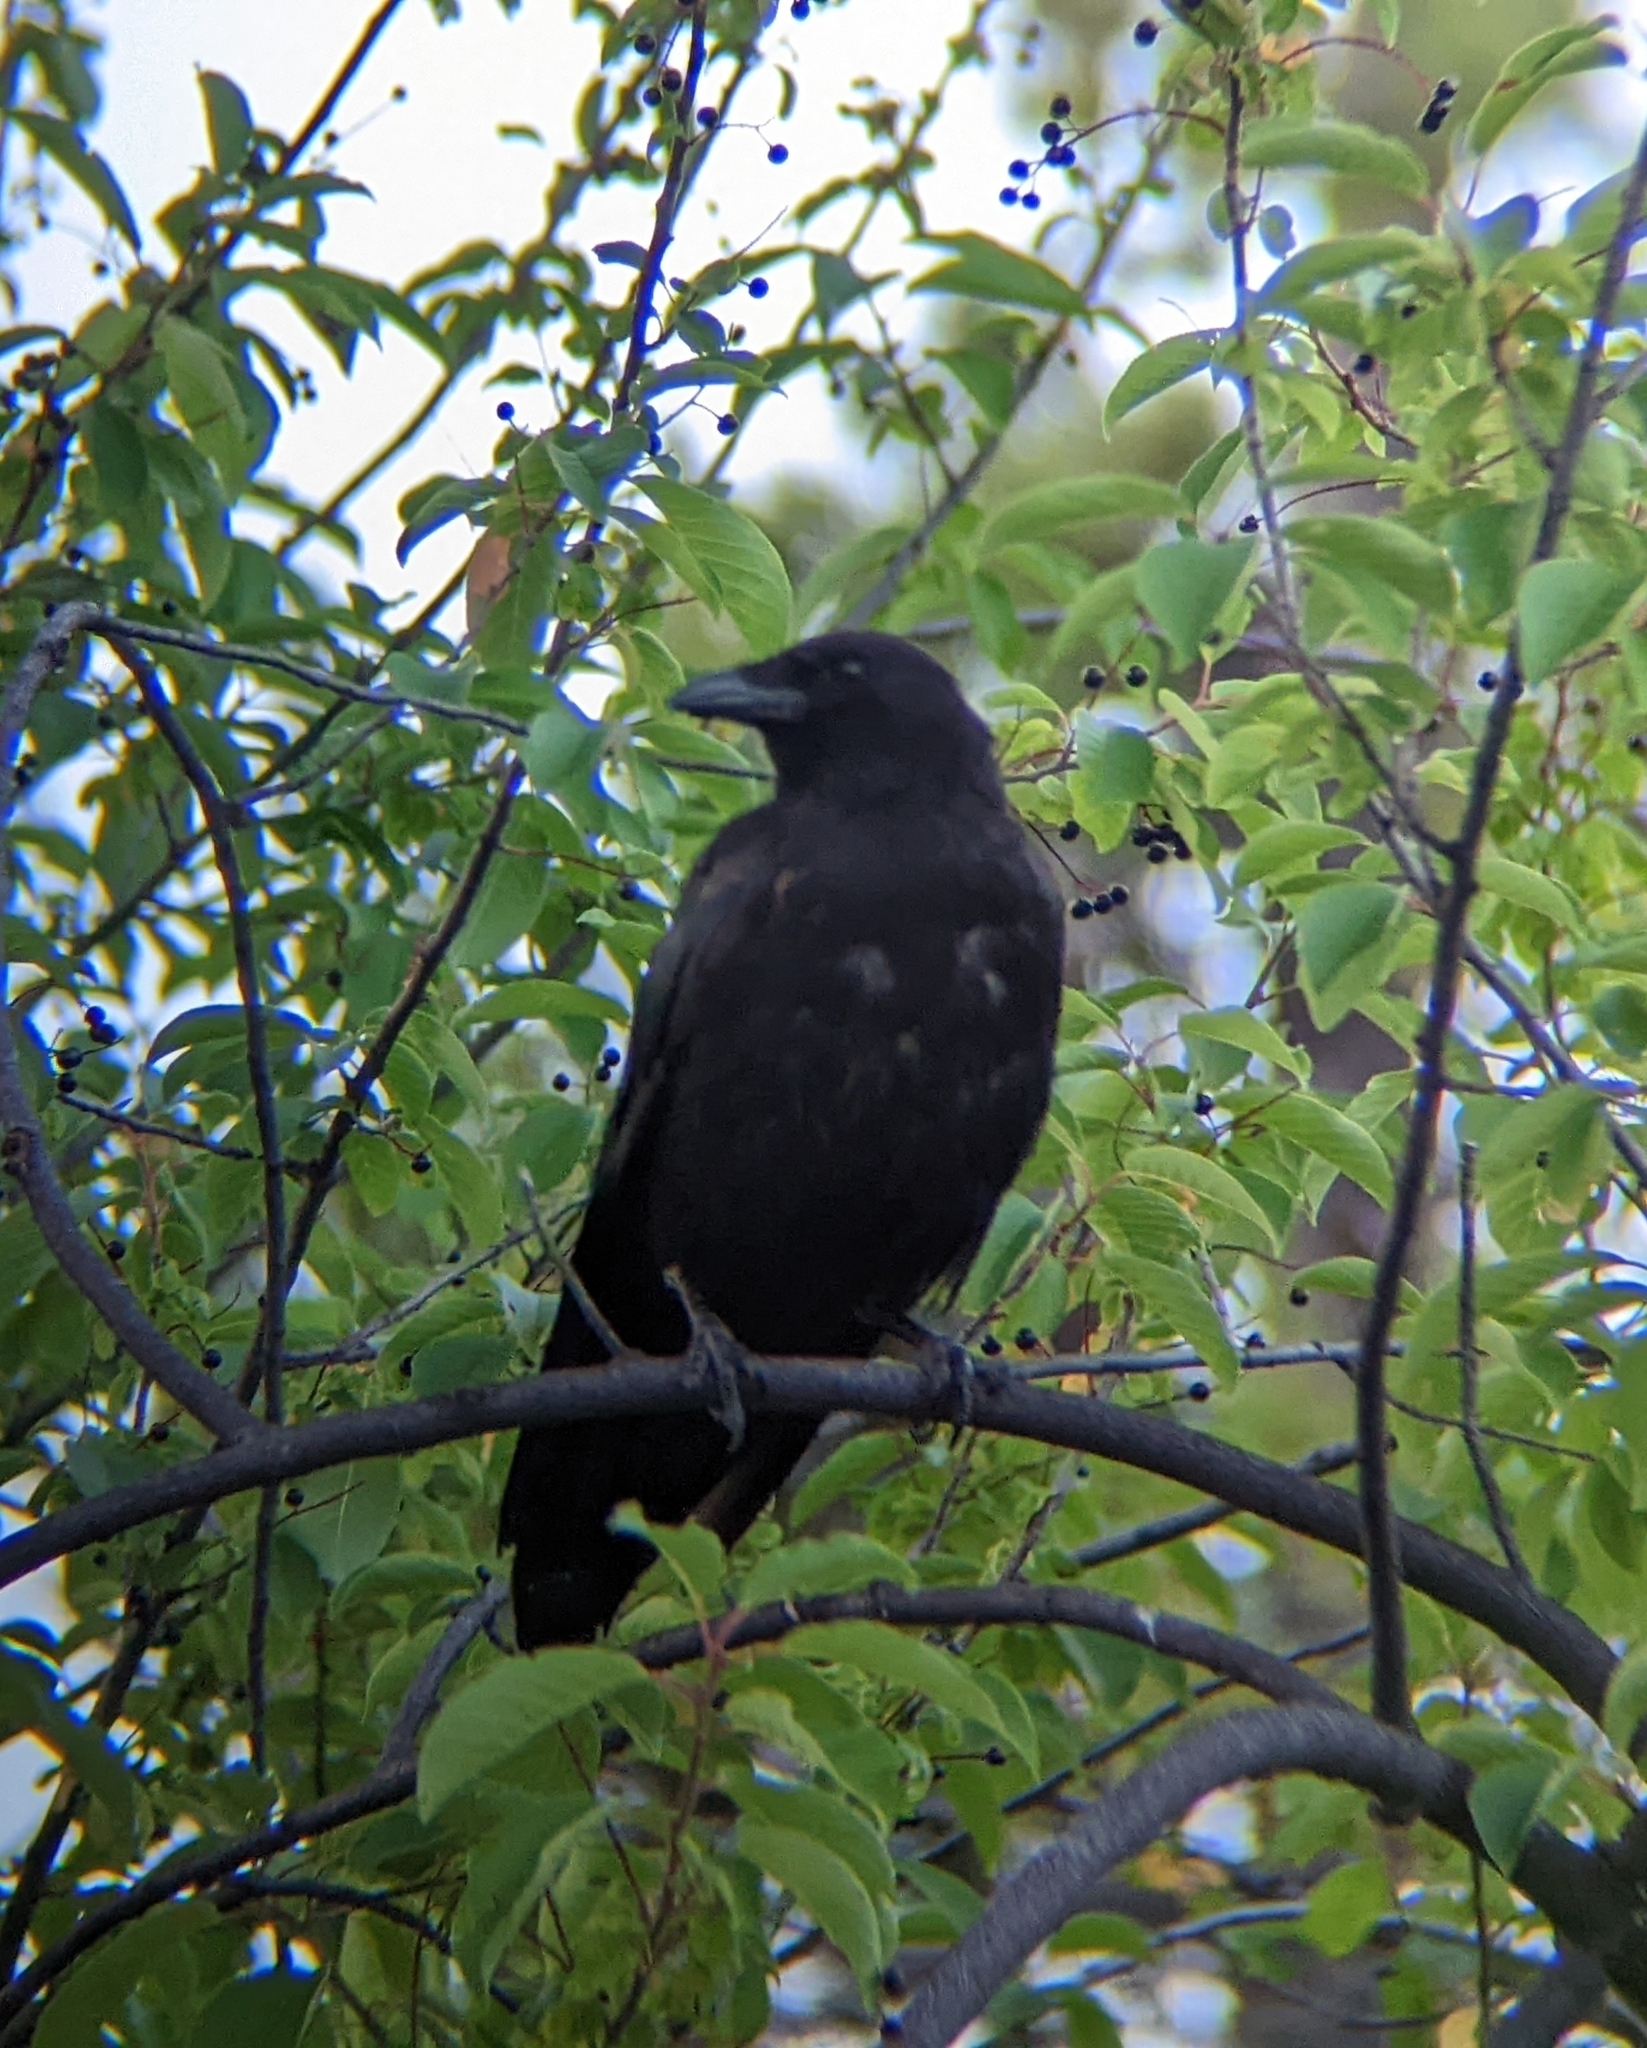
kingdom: Animalia
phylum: Chordata
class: Aves
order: Passeriformes
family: Corvidae
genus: Corvus
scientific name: Corvus brachyrhynchos
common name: American crow
